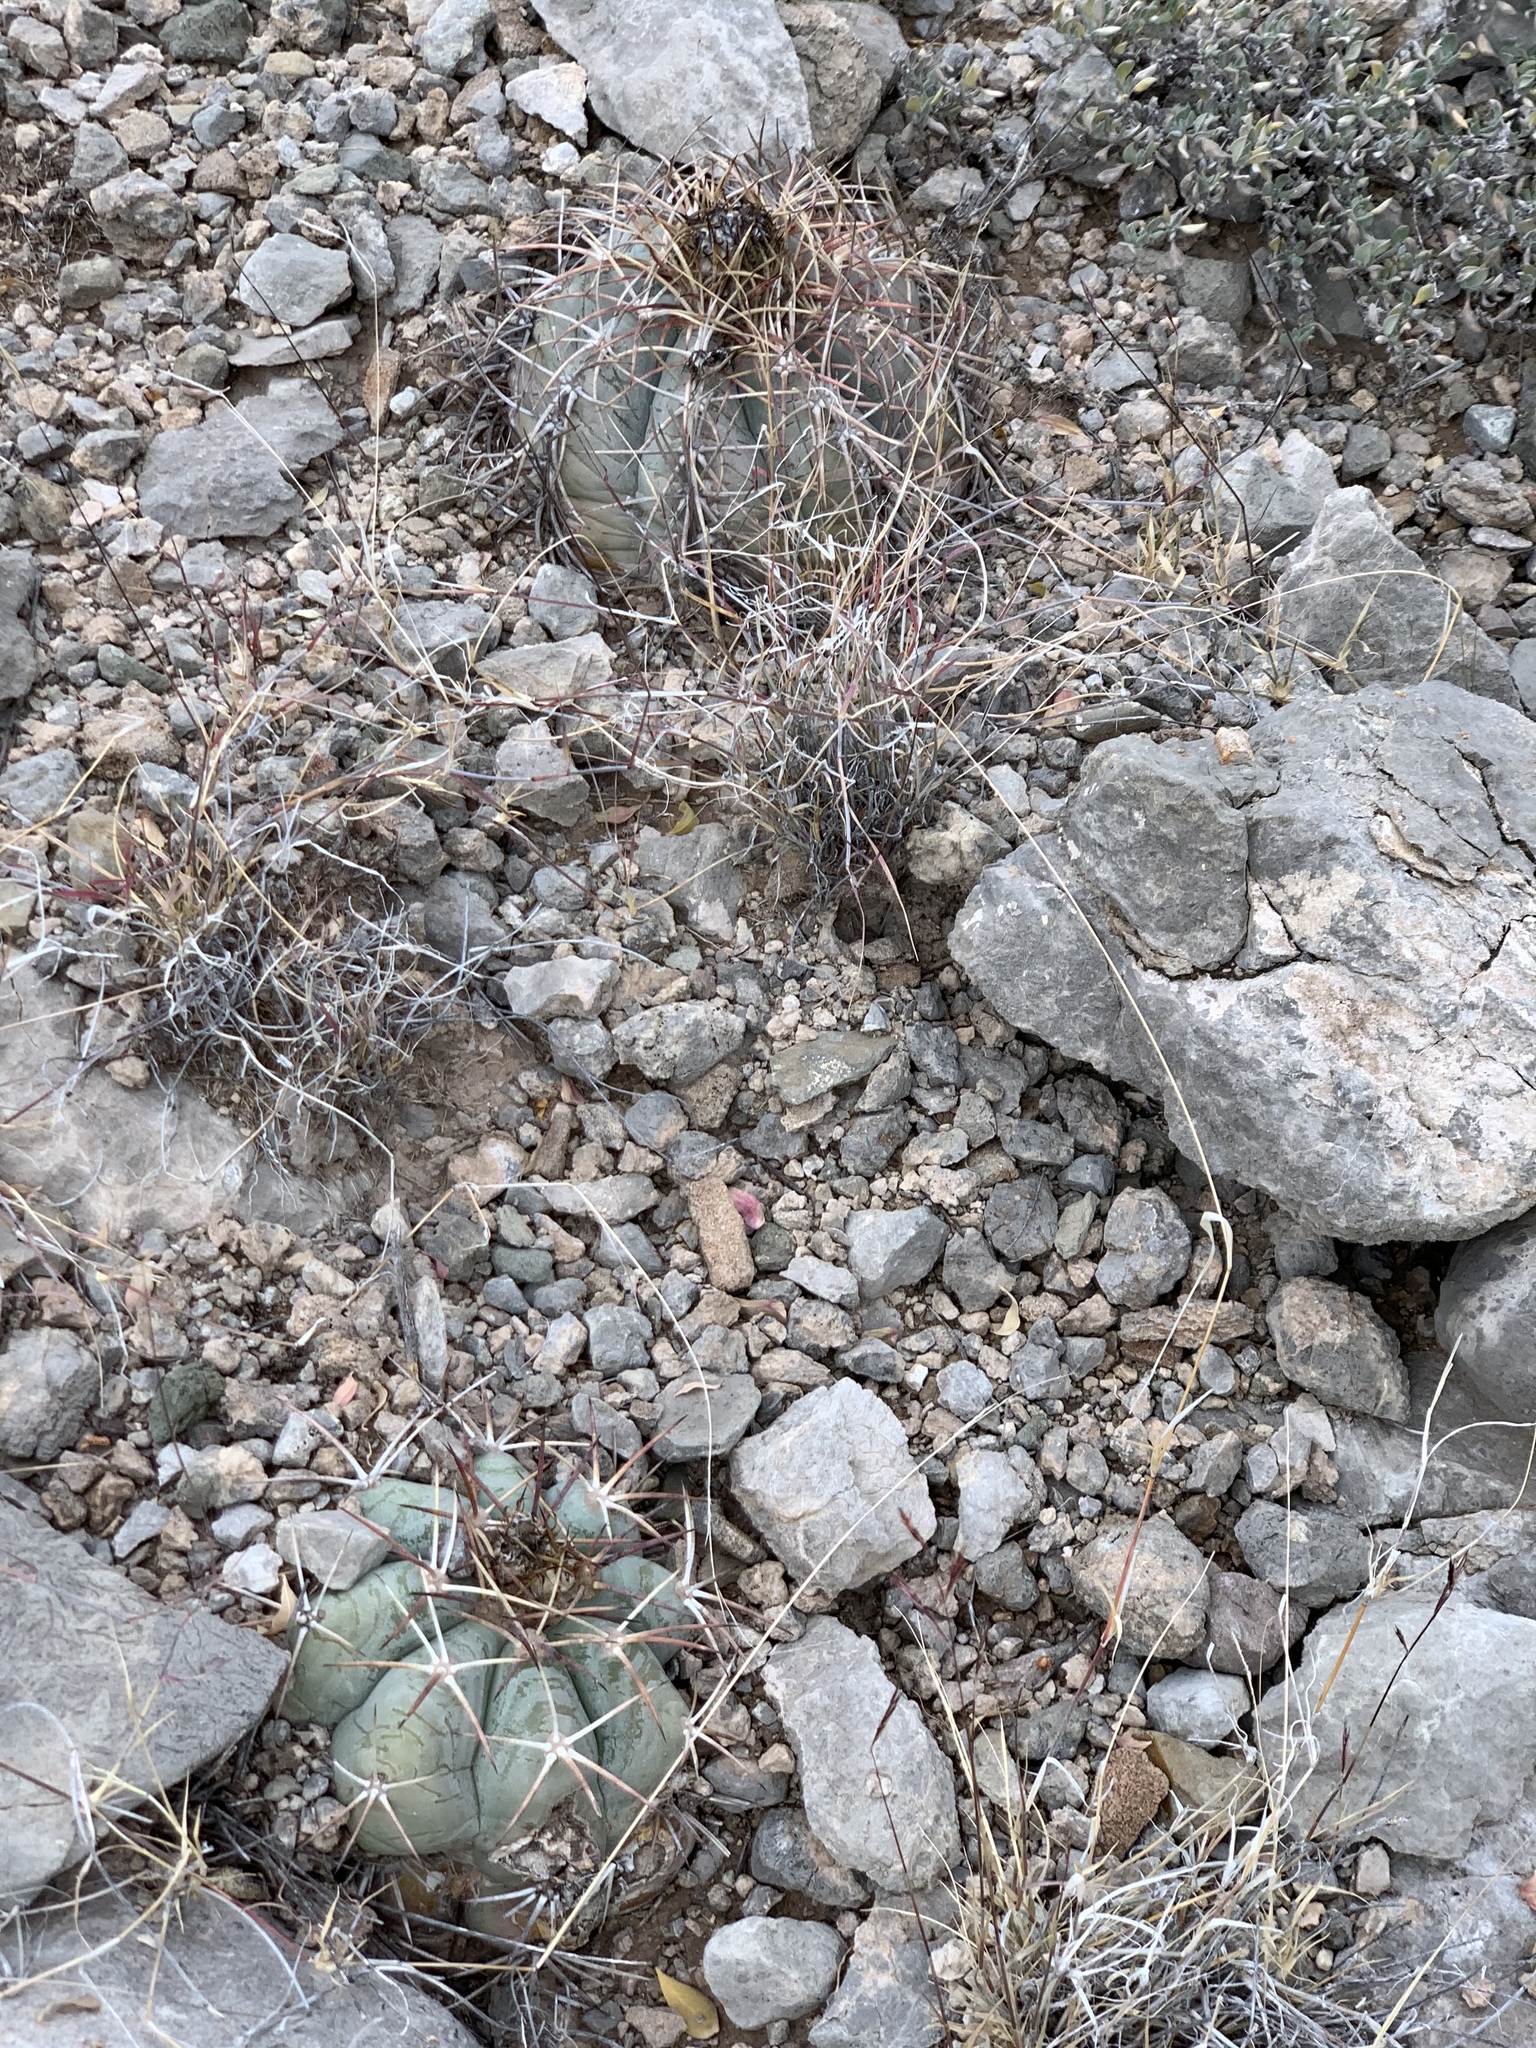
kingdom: Plantae
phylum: Tracheophyta
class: Magnoliopsida
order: Caryophyllales
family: Cactaceae
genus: Echinocactus
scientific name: Echinocactus horizonthalonius
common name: Devilshead
